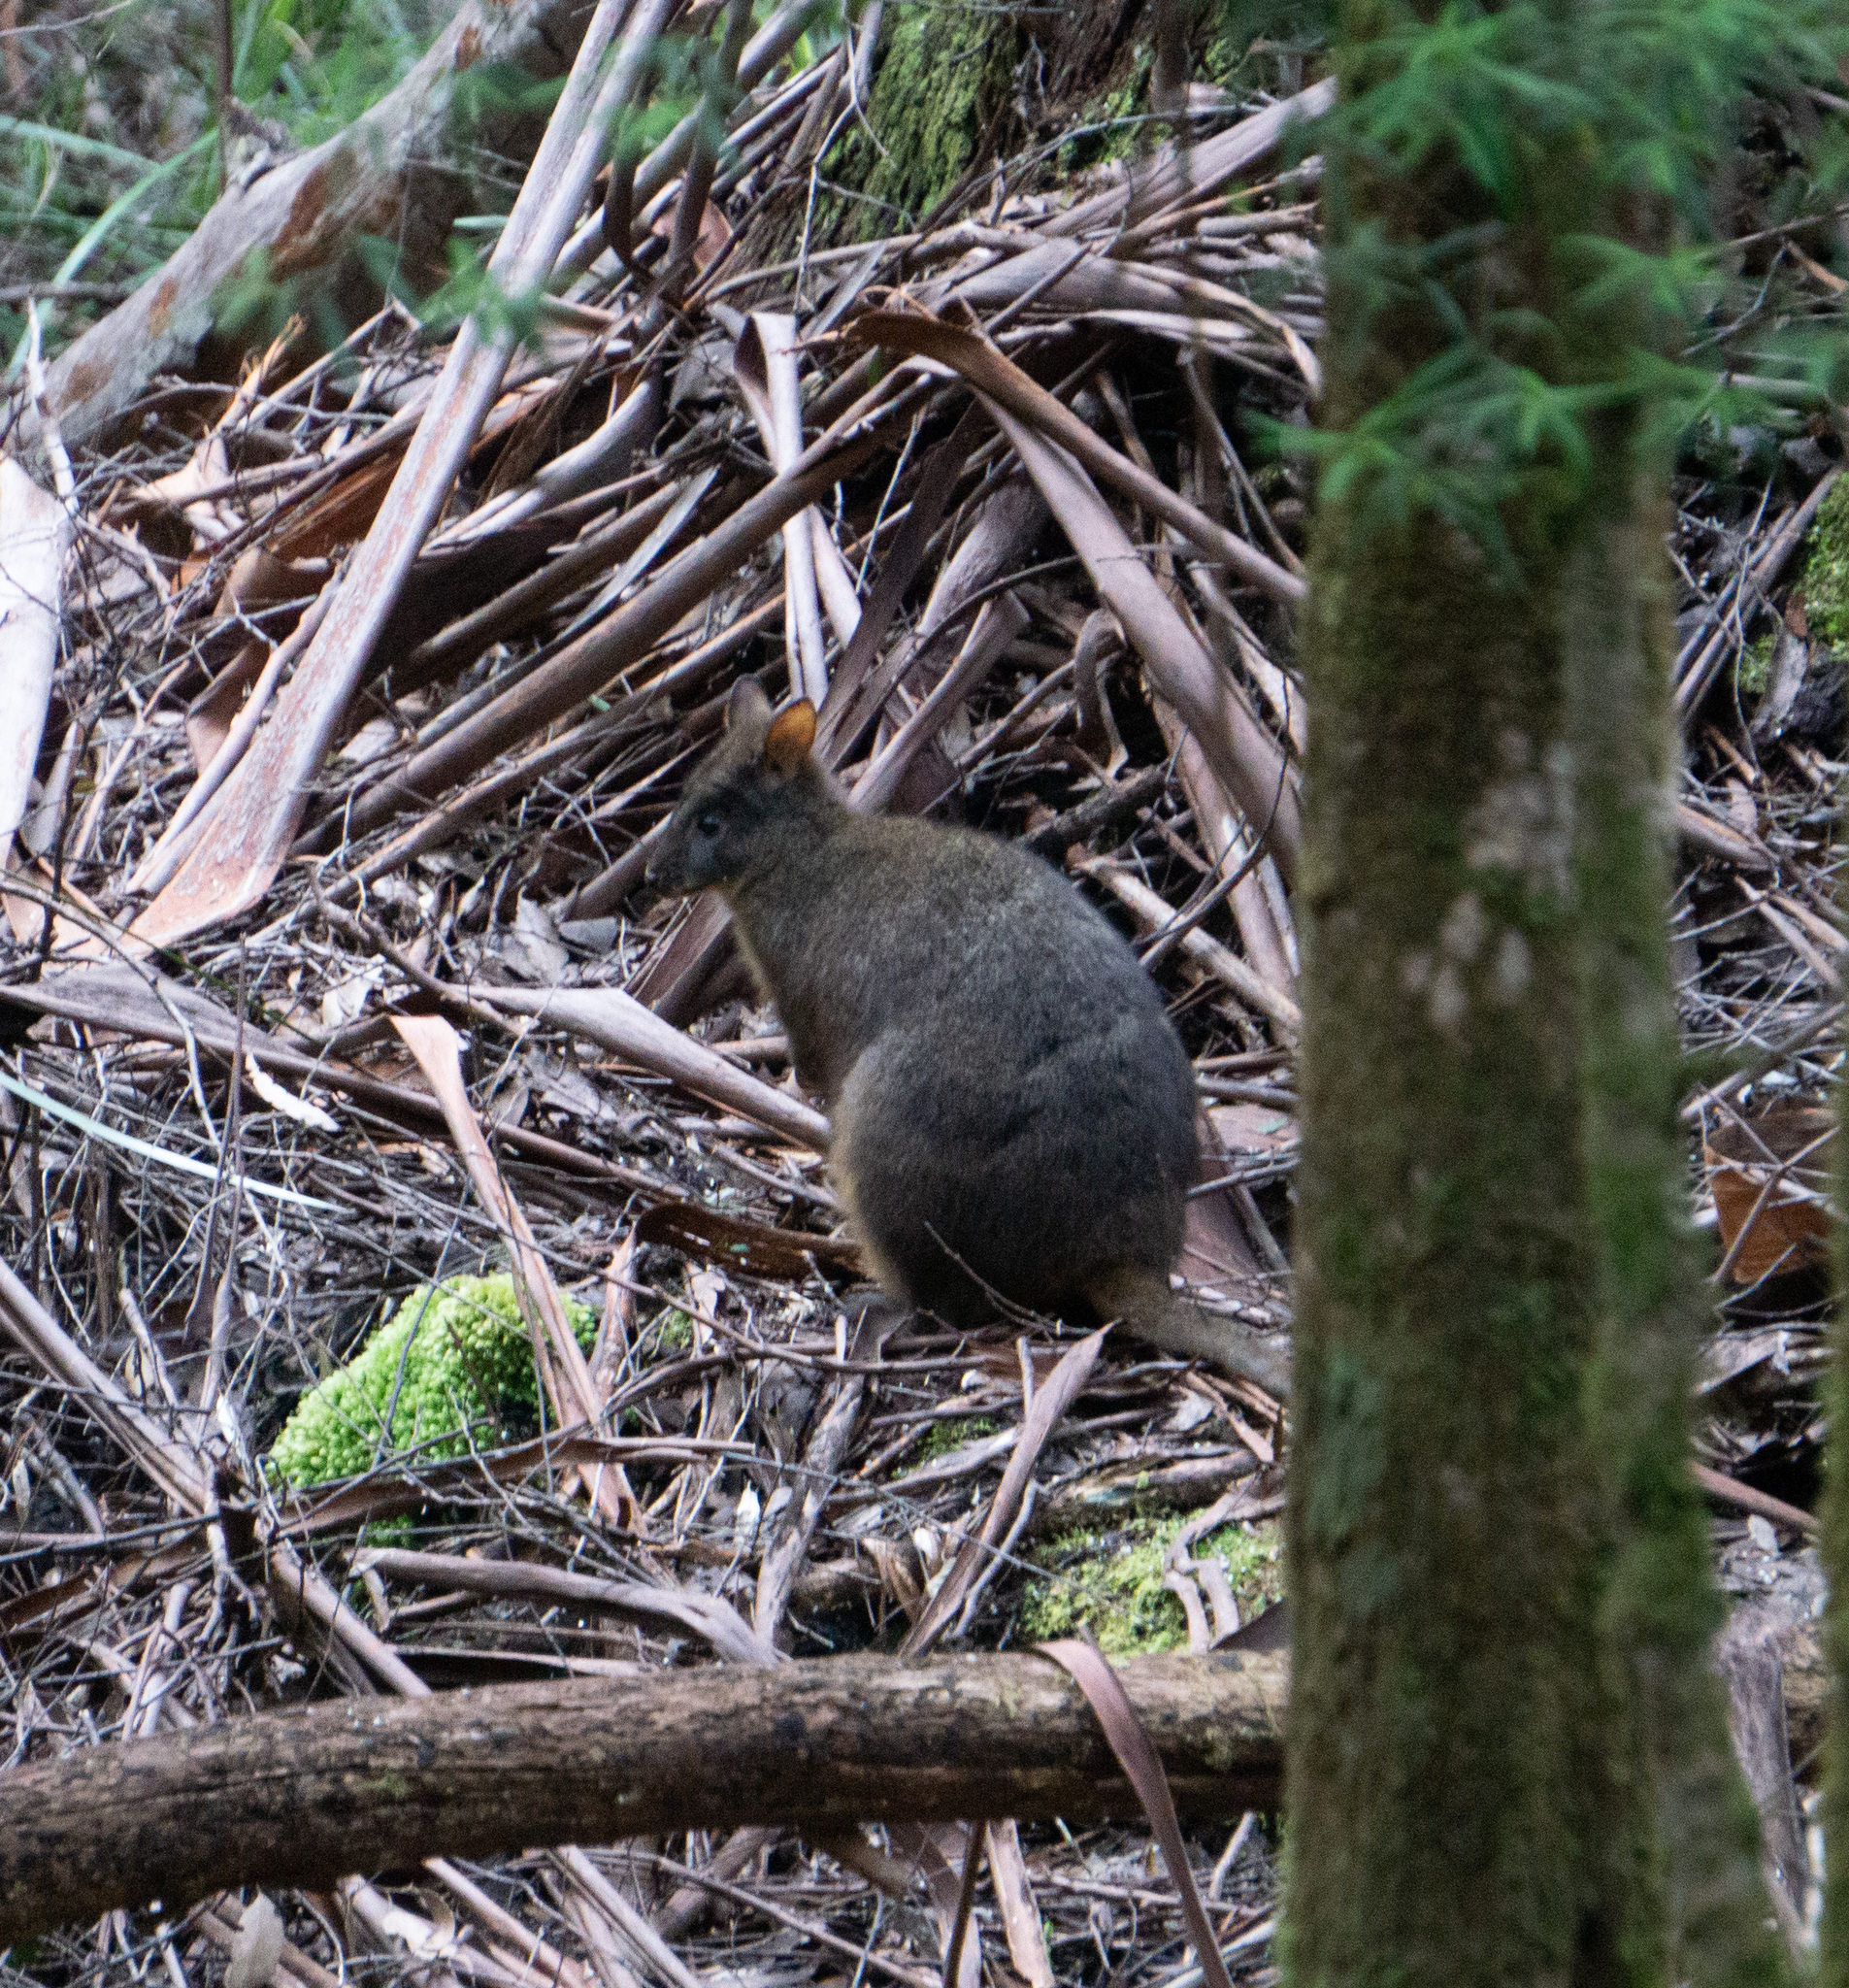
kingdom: Animalia
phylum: Chordata
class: Mammalia
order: Diprotodontia
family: Macropodidae
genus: Thylogale
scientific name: Thylogale billardierii
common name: Tasmanian pademelon
